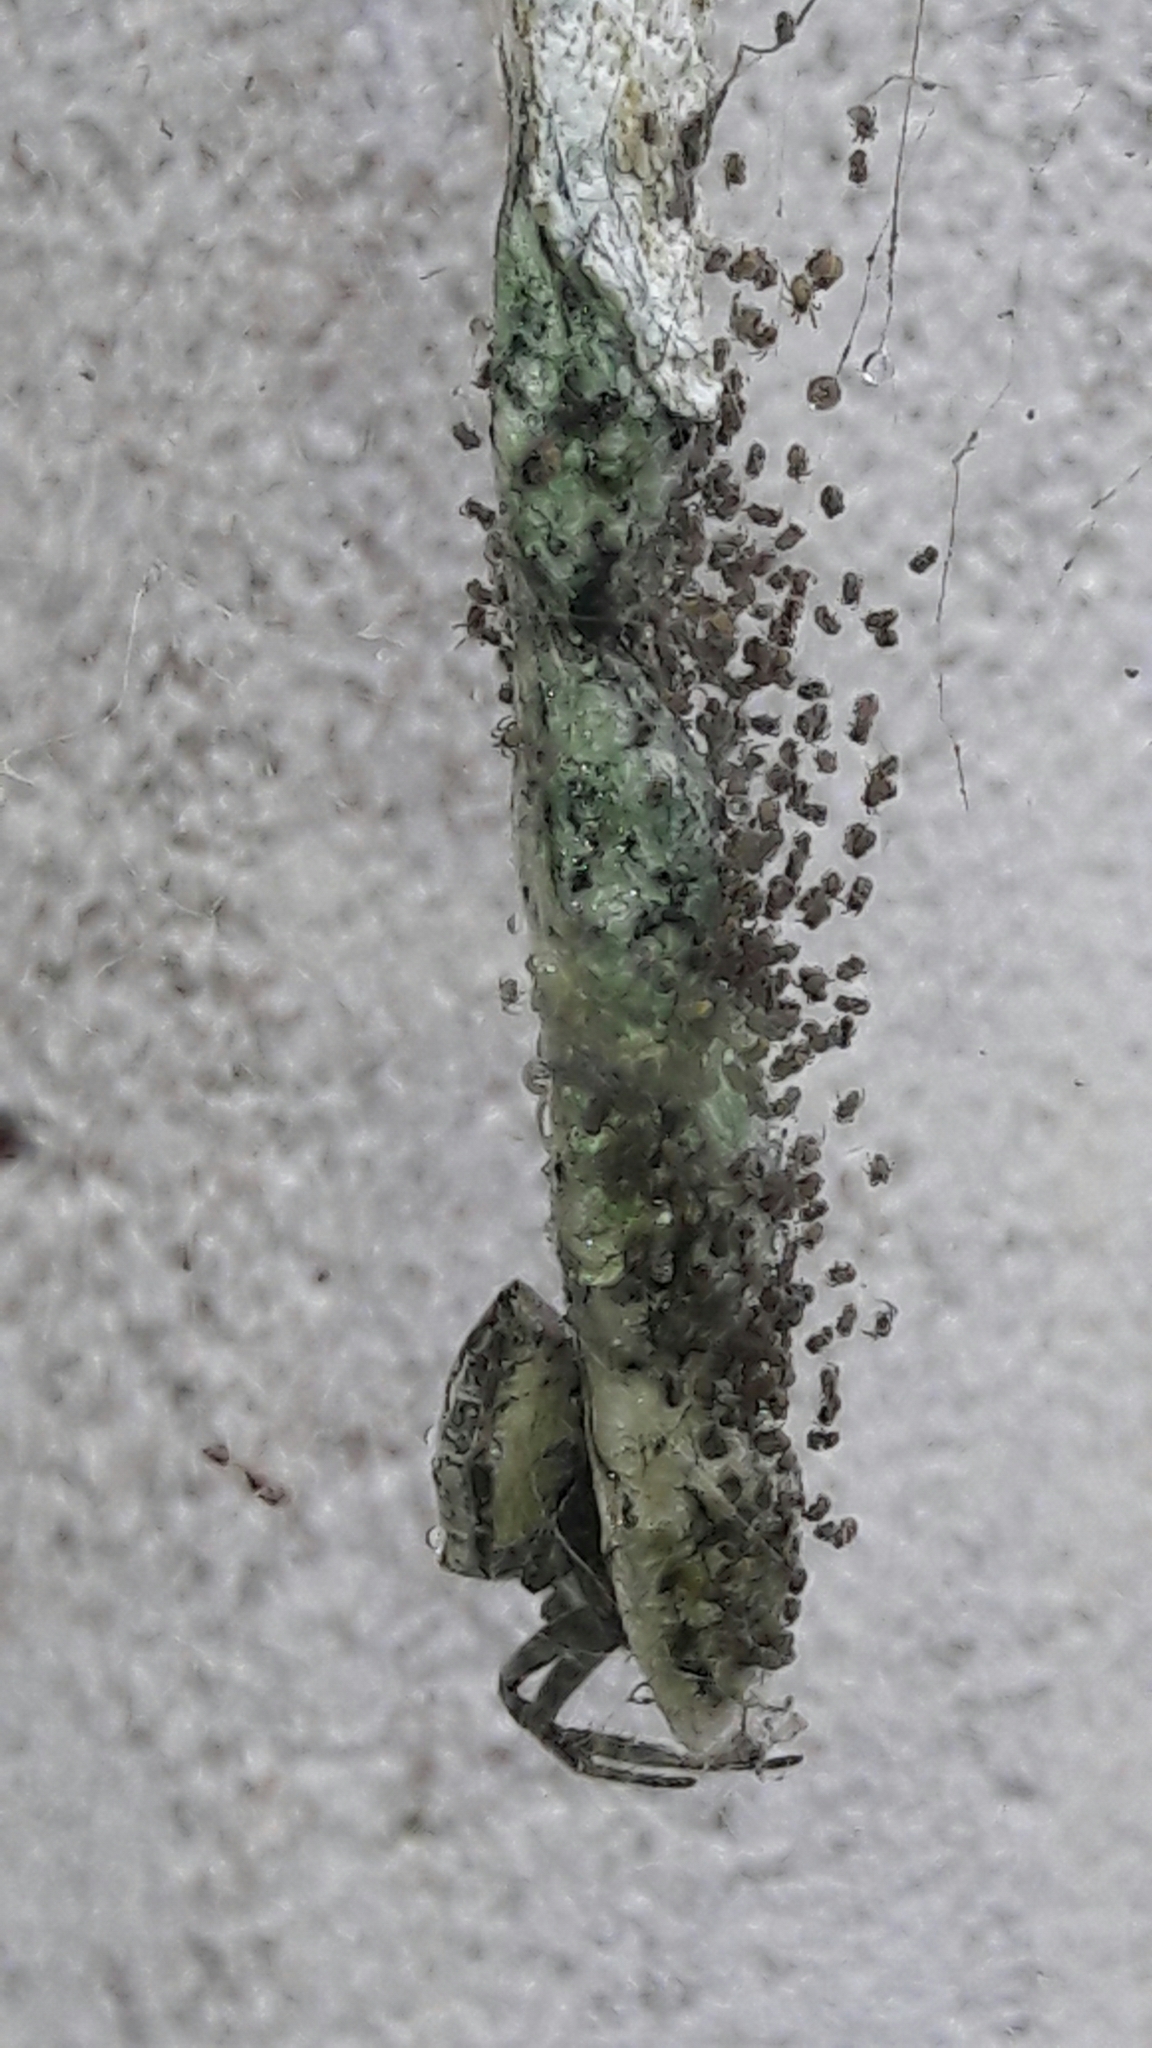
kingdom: Animalia
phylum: Arthropoda
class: Arachnida
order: Araneae
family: Araneidae
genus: Cyrtophora
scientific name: Cyrtophora citricola
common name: Orb weavers
